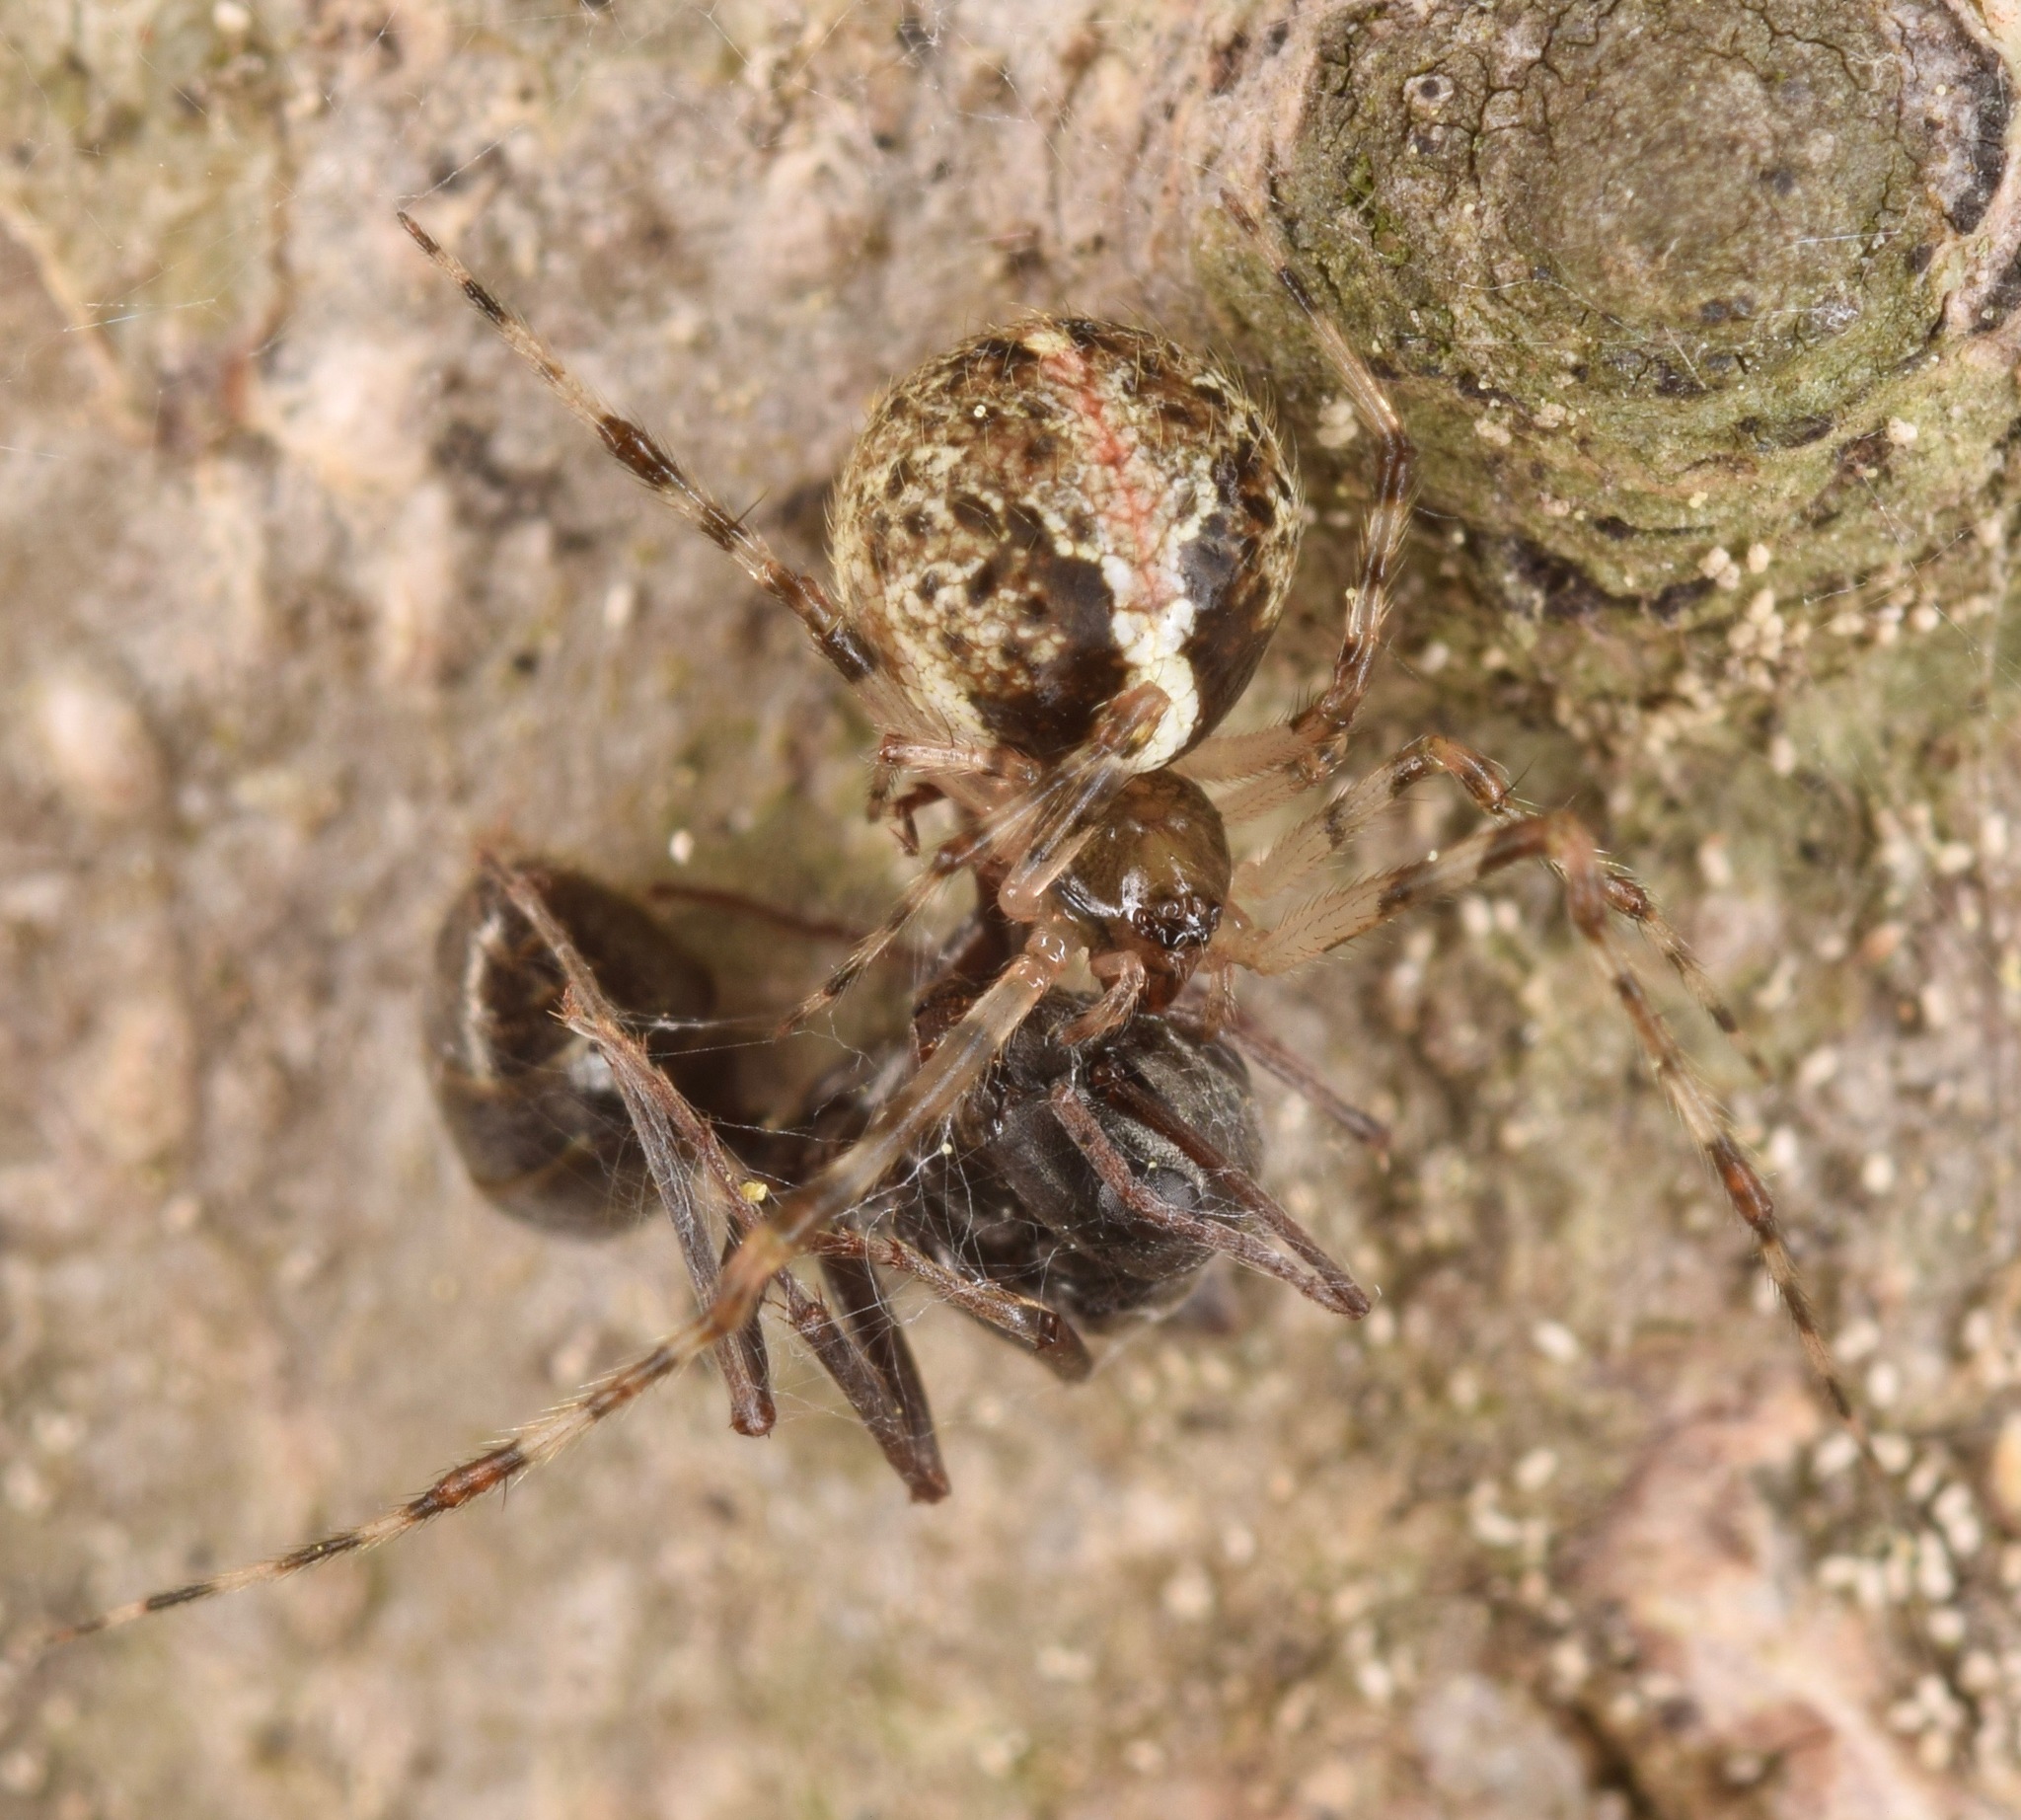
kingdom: Animalia
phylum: Arthropoda
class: Arachnida
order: Araneae
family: Theridiidae
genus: Yunohamella
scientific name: Yunohamella lyrica
